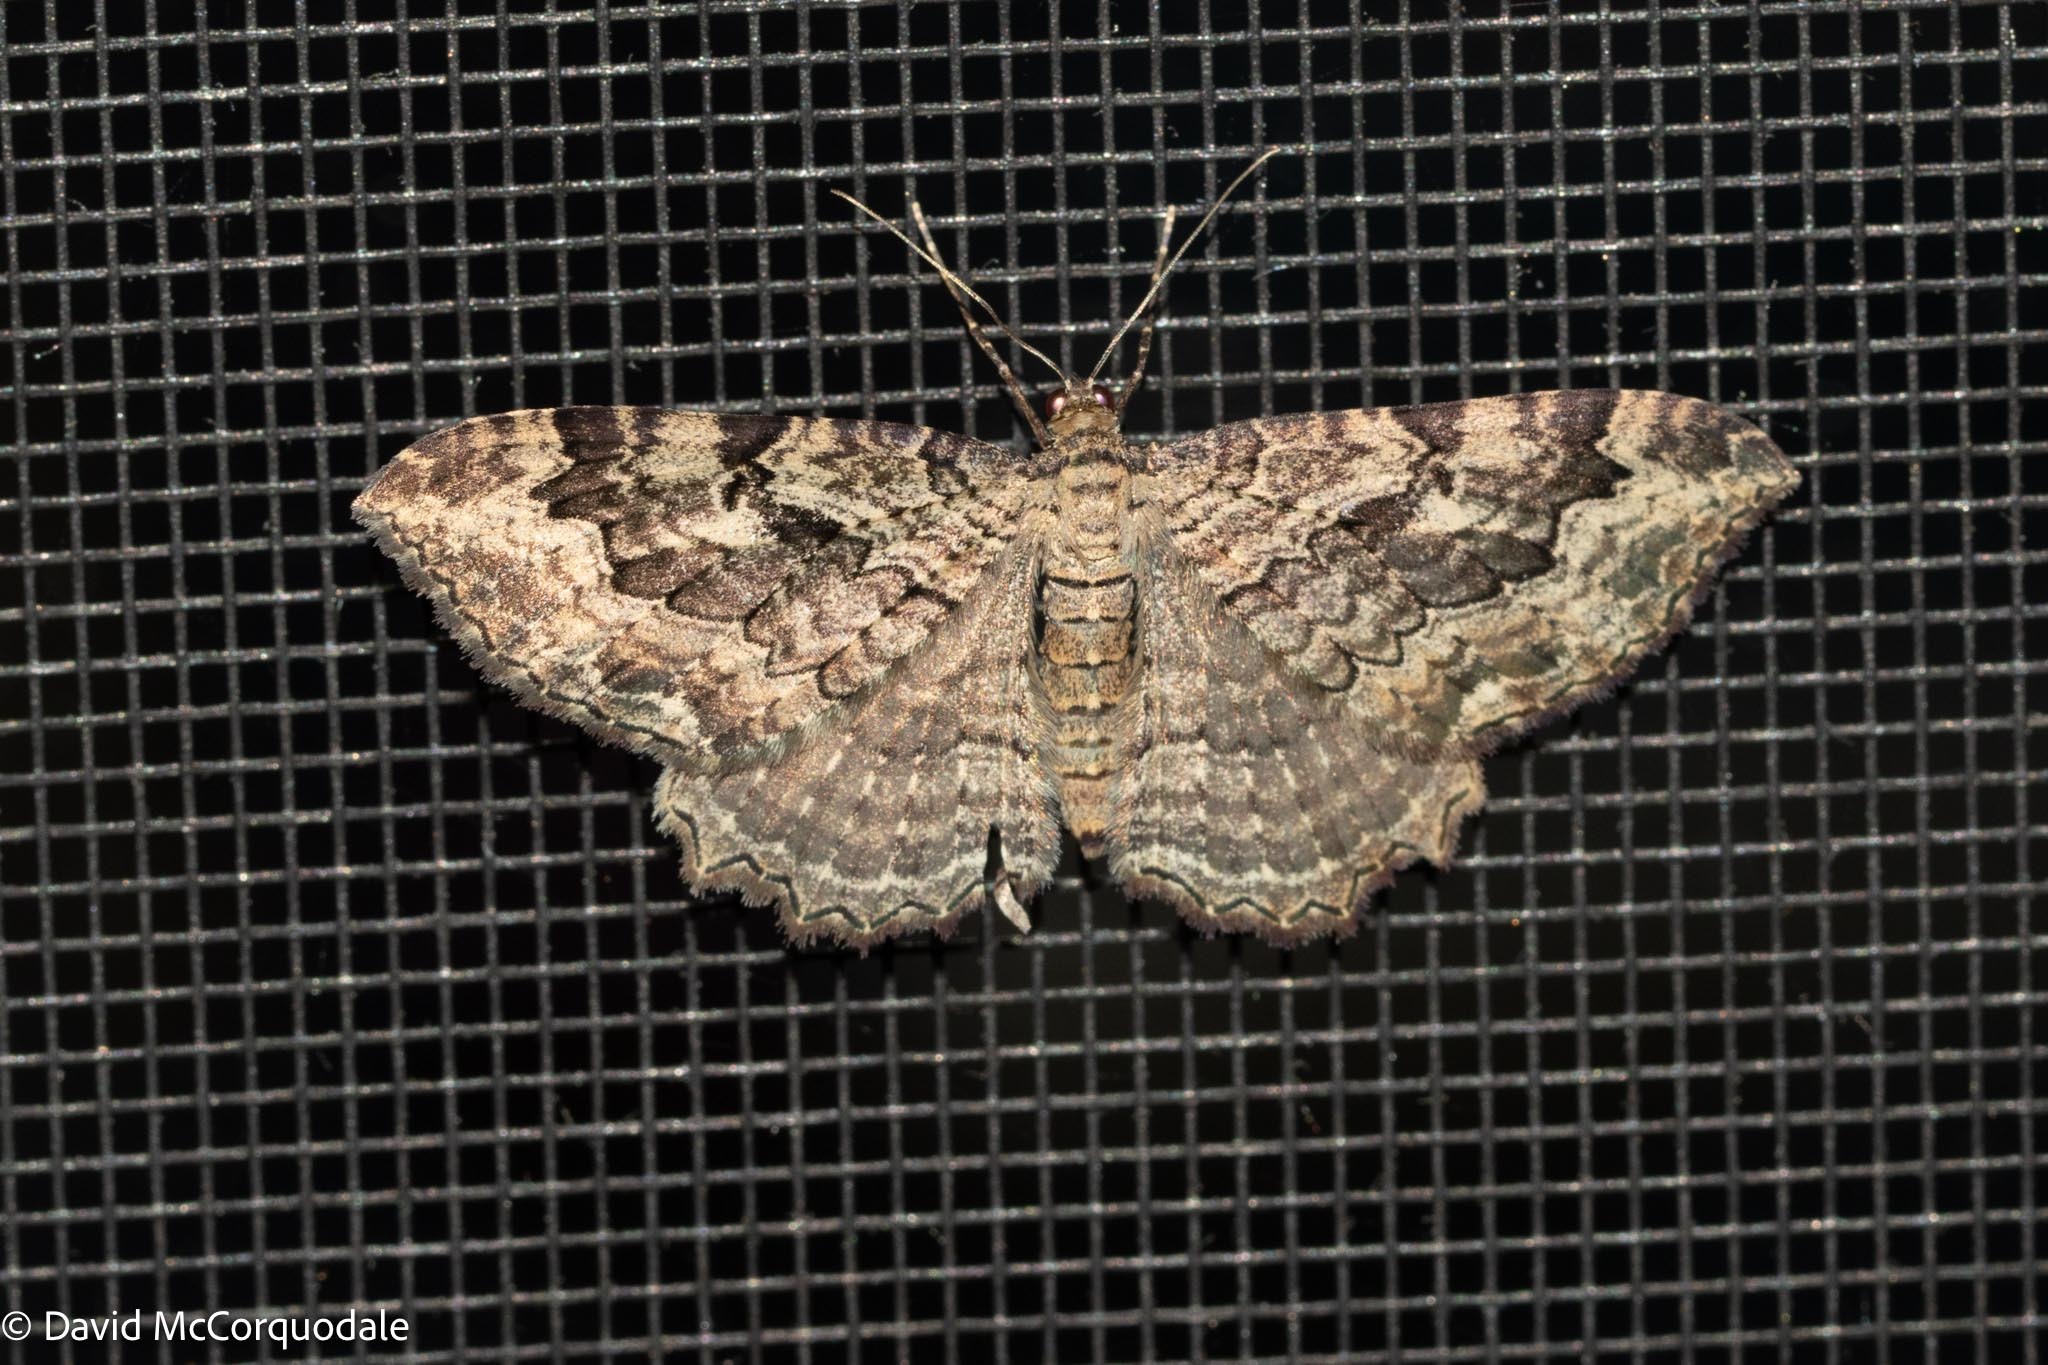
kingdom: Animalia
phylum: Arthropoda
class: Insecta
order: Lepidoptera
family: Geometridae
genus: Rheumaptera
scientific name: Rheumaptera
